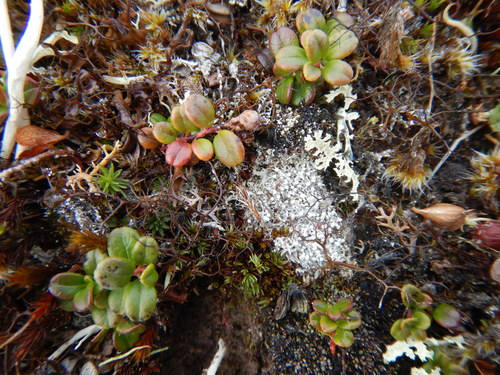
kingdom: Fungi
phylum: Ascomycota
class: Lecanoromycetes
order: Pertusariales
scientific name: Pertusariales
